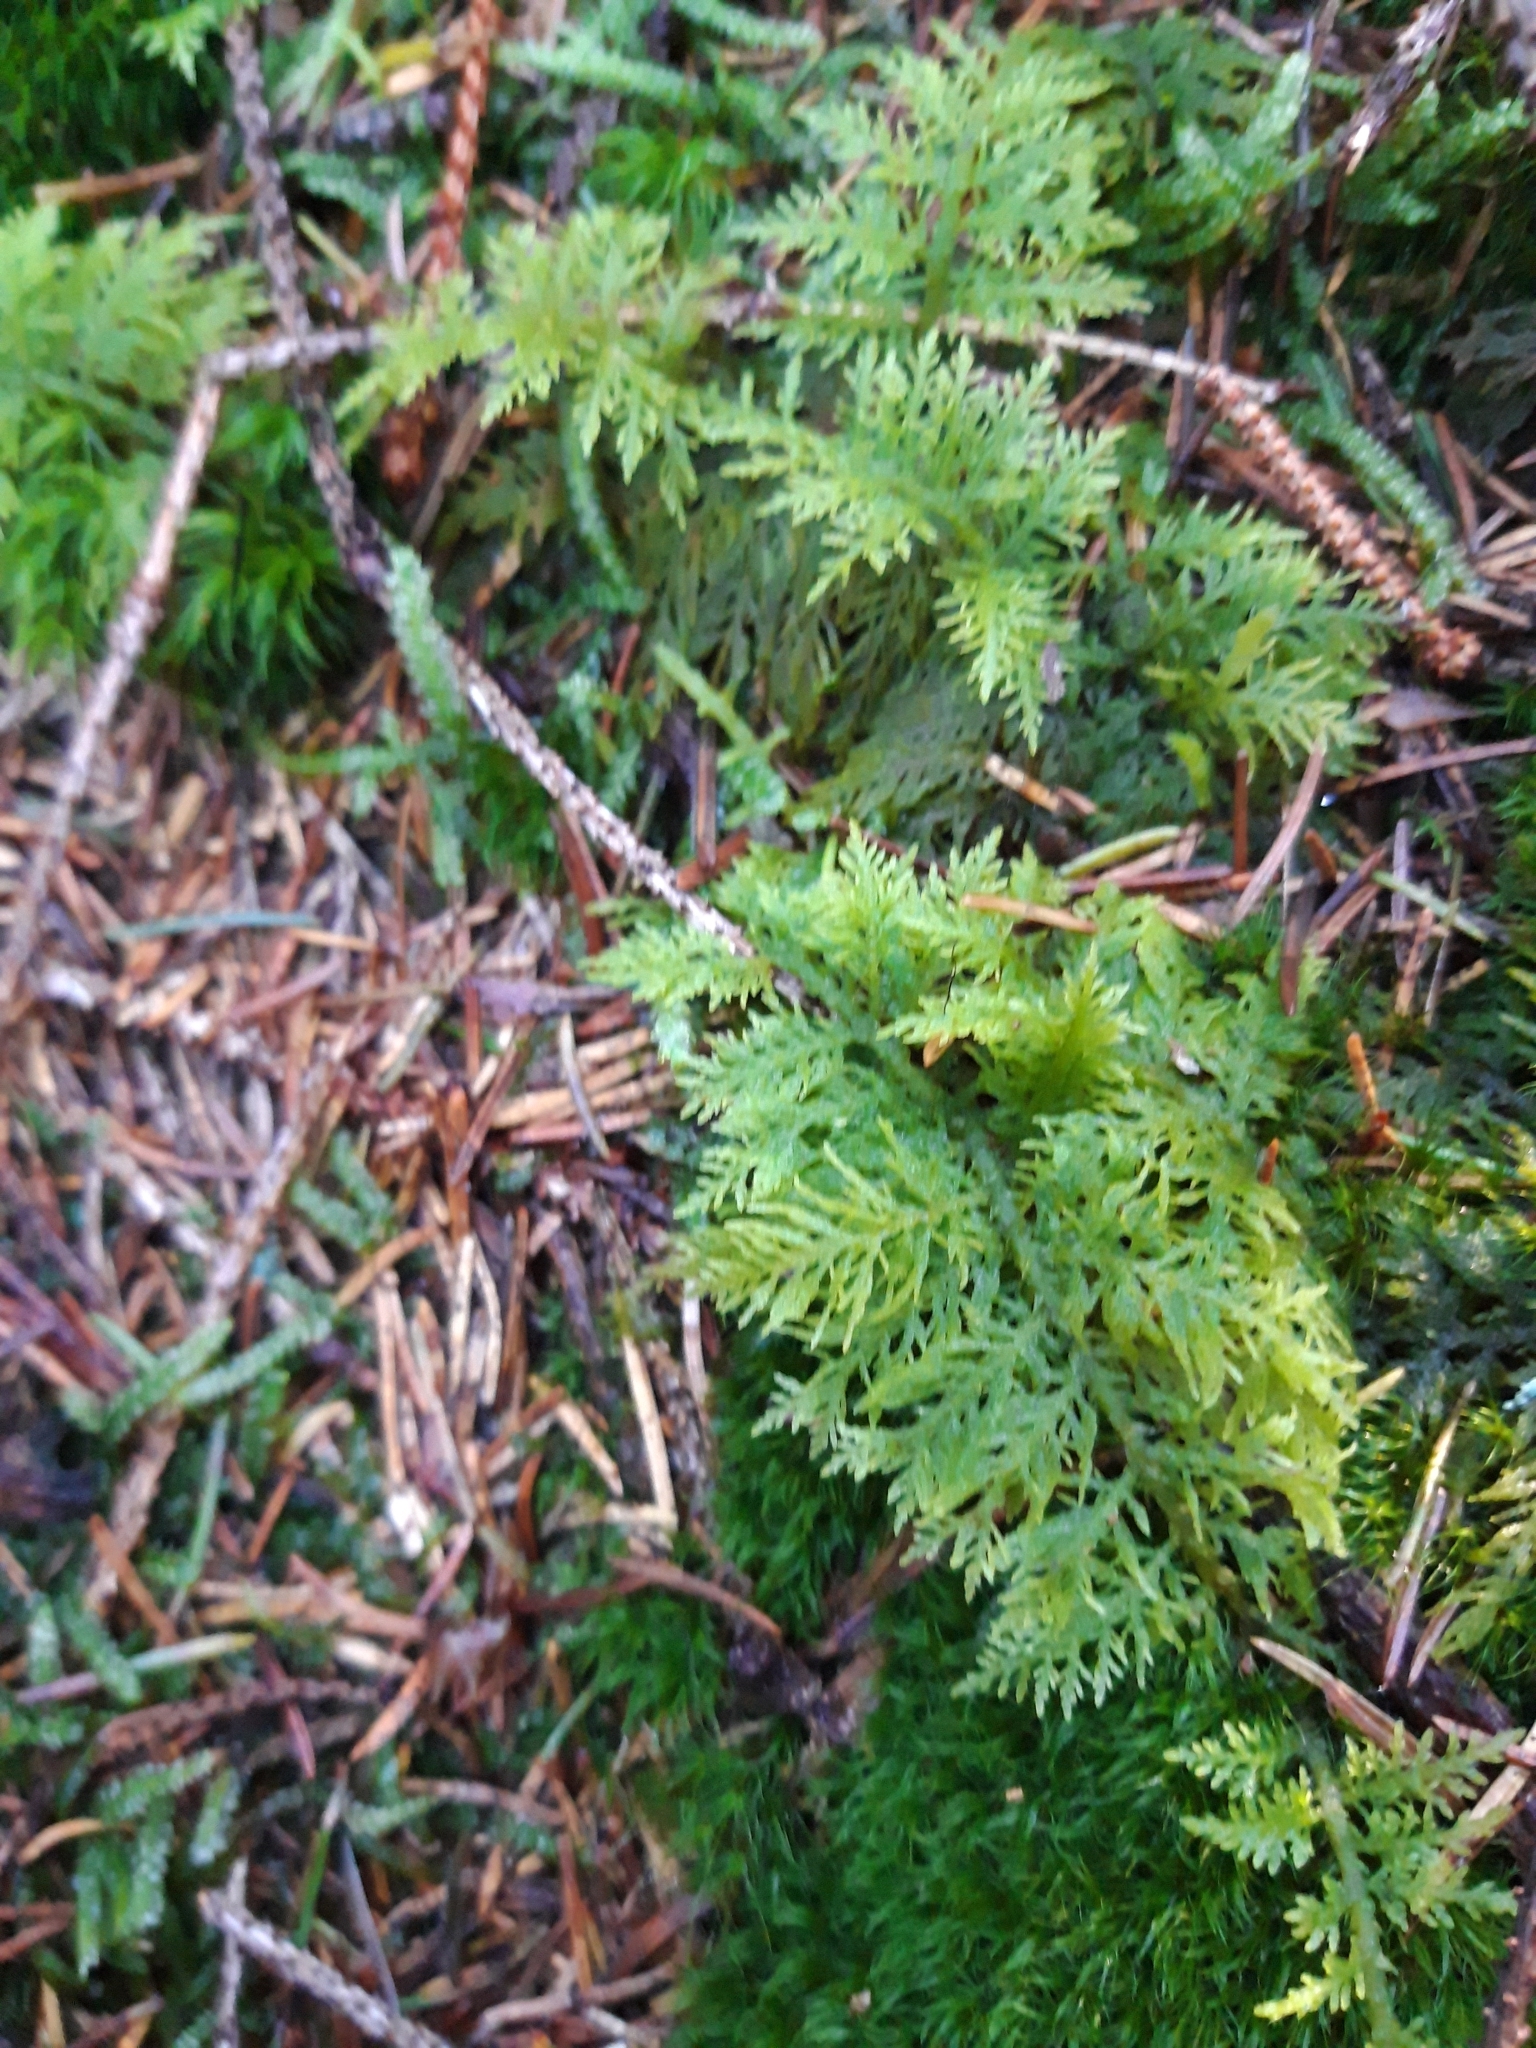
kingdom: Plantae
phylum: Bryophyta
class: Bryopsida
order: Hypnales
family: Thuidiaceae
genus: Thuidium
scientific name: Thuidium tamariscinum
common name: Common tamarisk-moss
